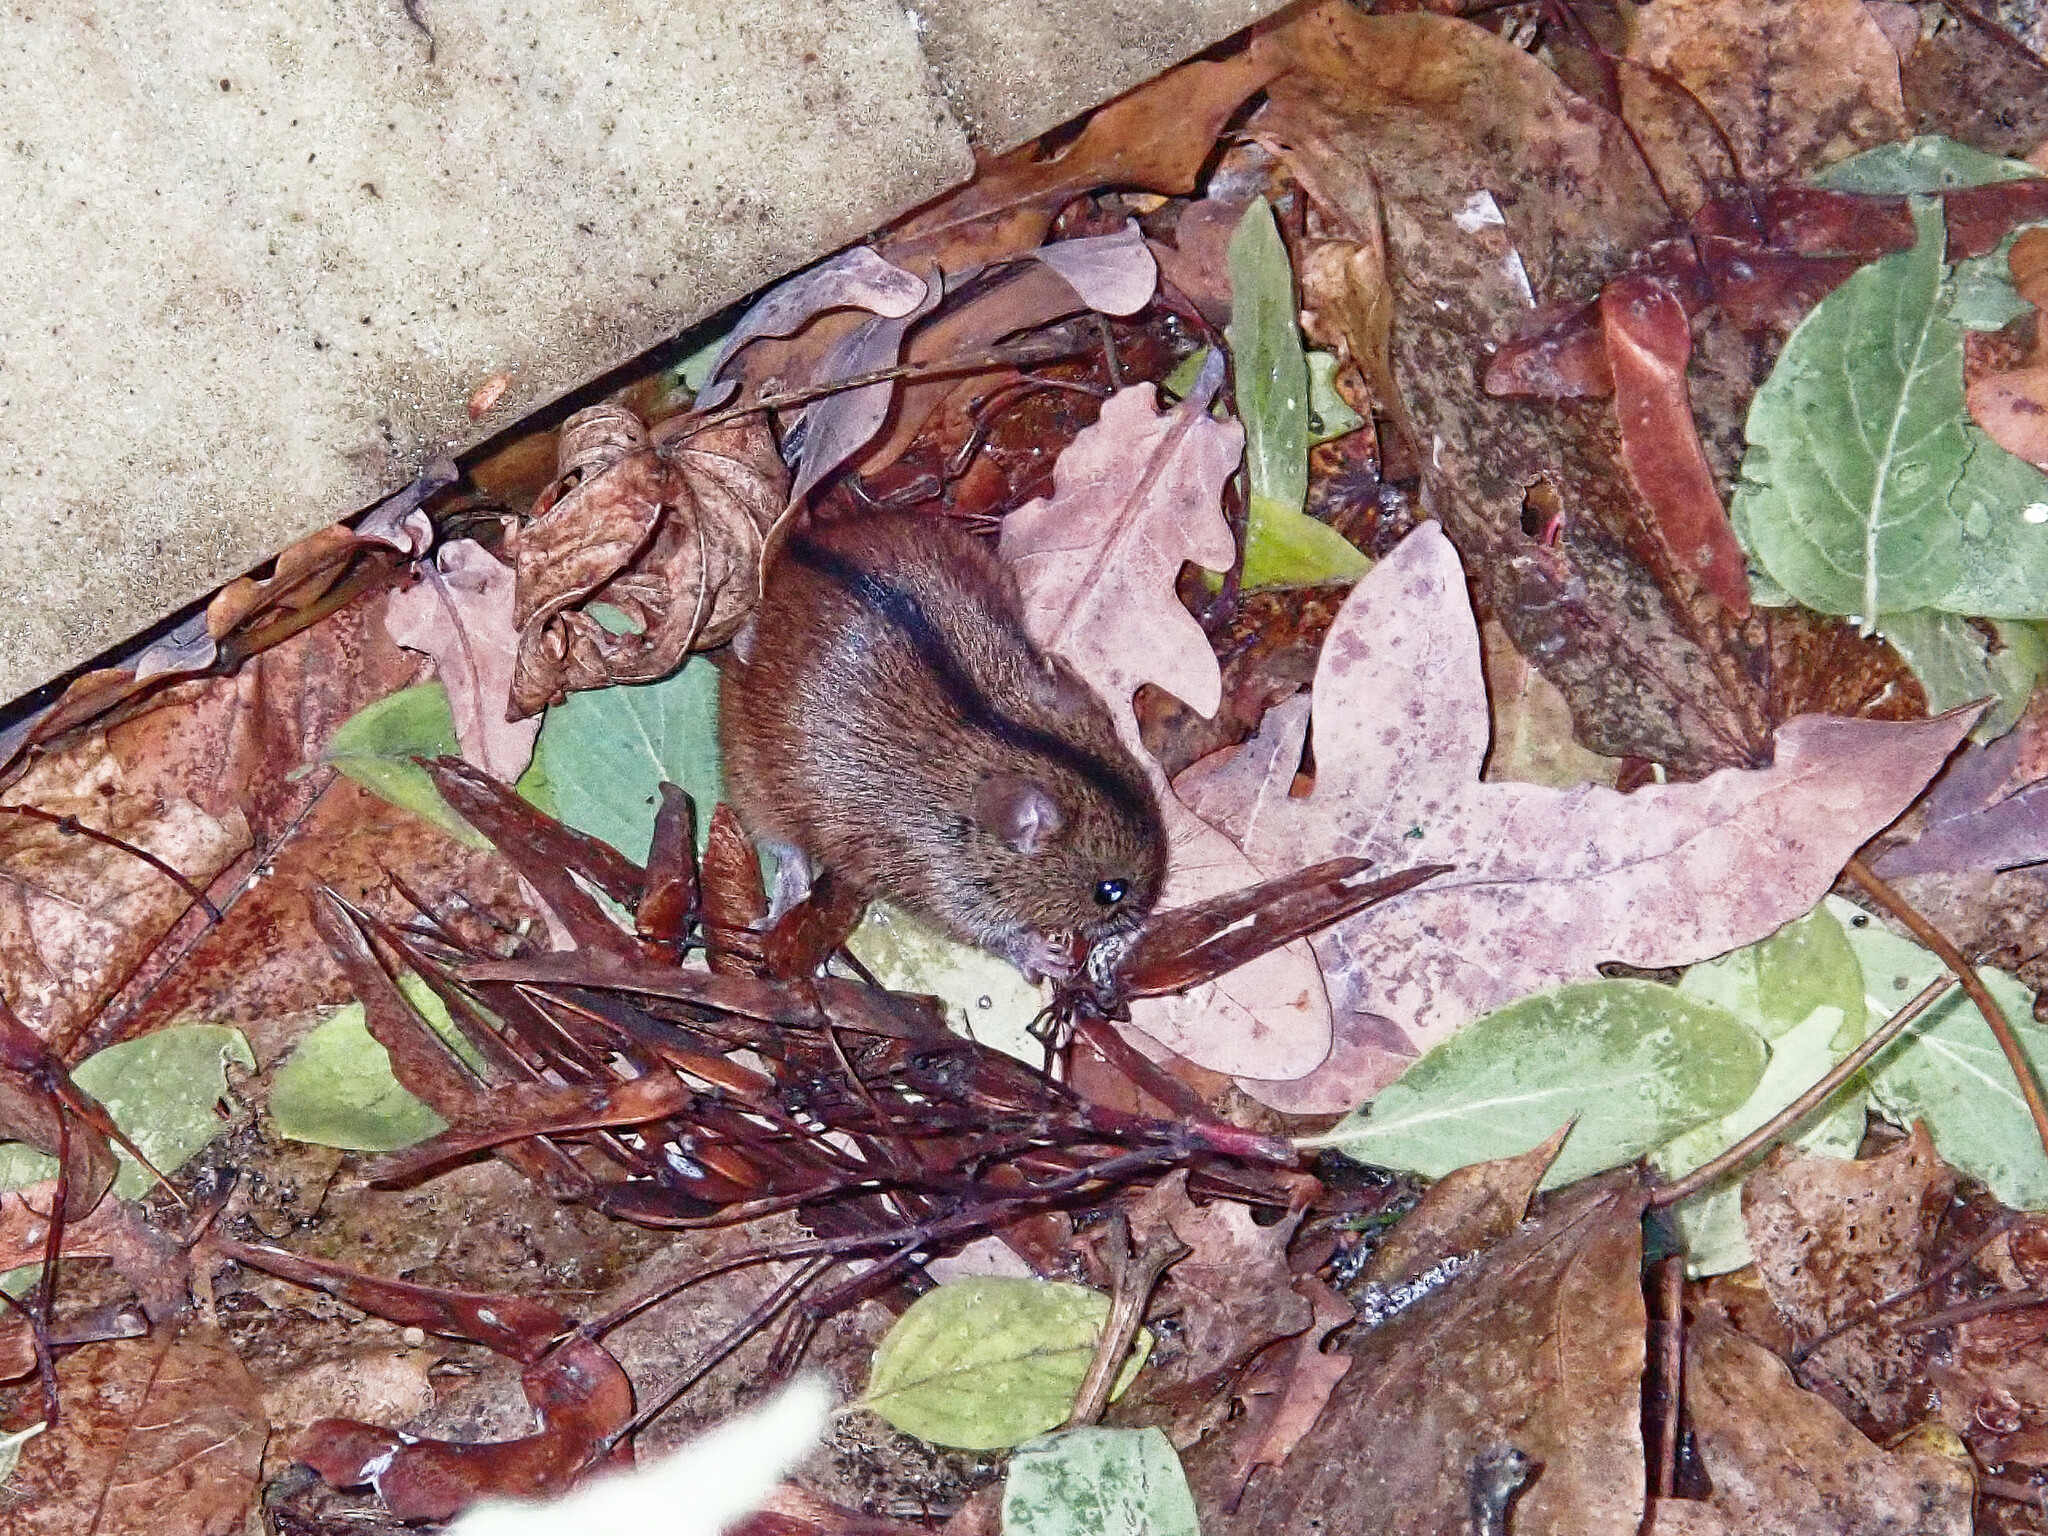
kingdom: Animalia
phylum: Chordata
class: Mammalia
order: Rodentia
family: Muridae
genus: Apodemus
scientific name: Apodemus agrarius
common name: Striped field mouse
